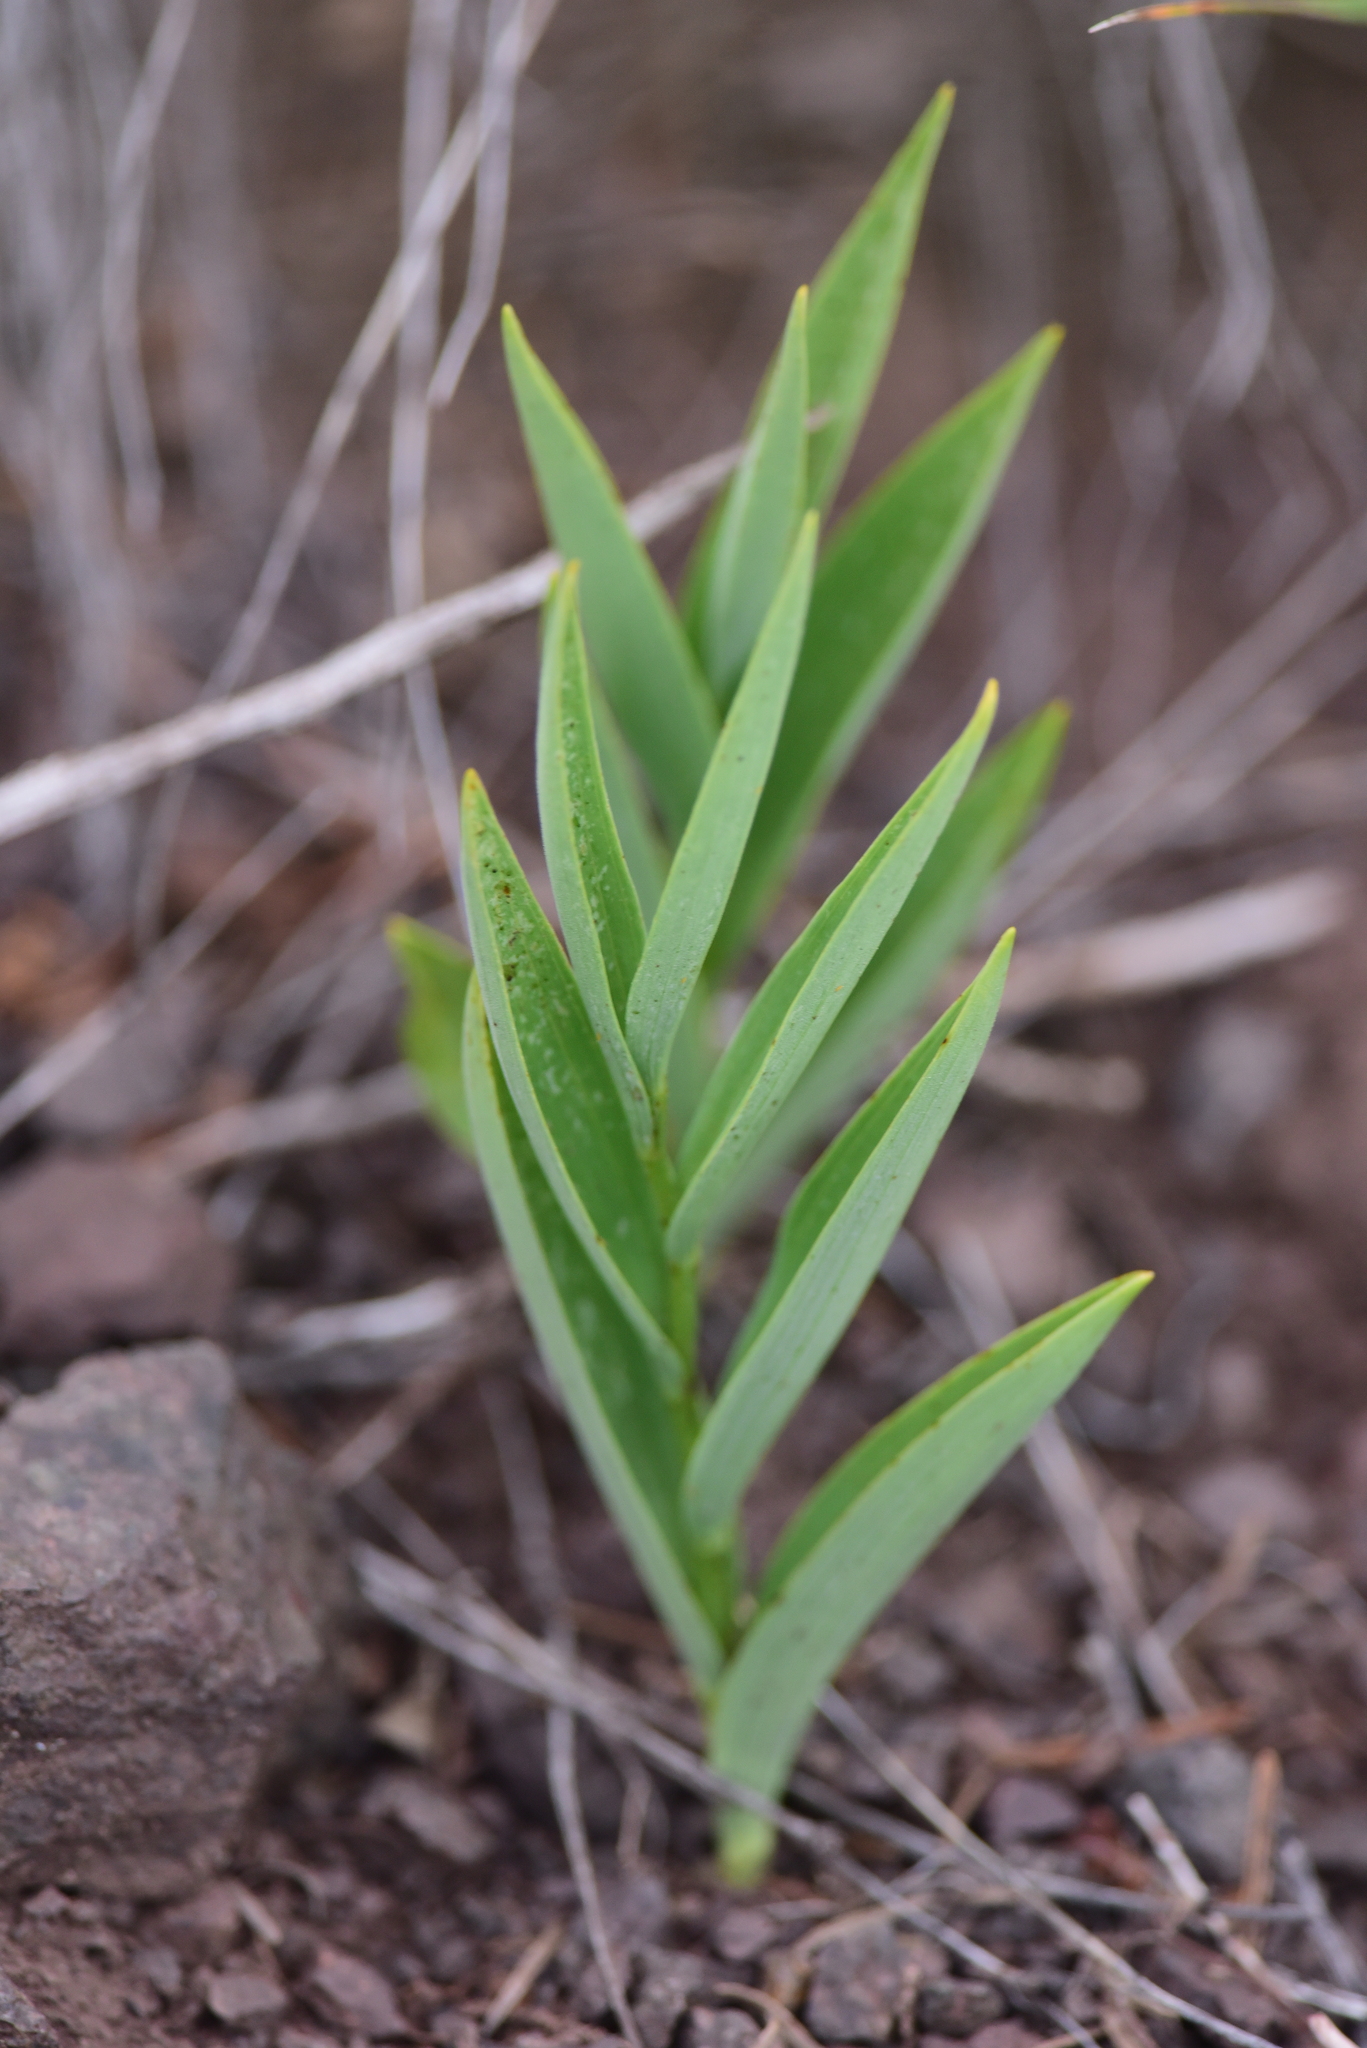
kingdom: Plantae
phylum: Tracheophyta
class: Liliopsida
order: Asparagales
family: Asparagaceae
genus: Maianthemum
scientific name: Maianthemum stellatum
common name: Little false solomon's seal
